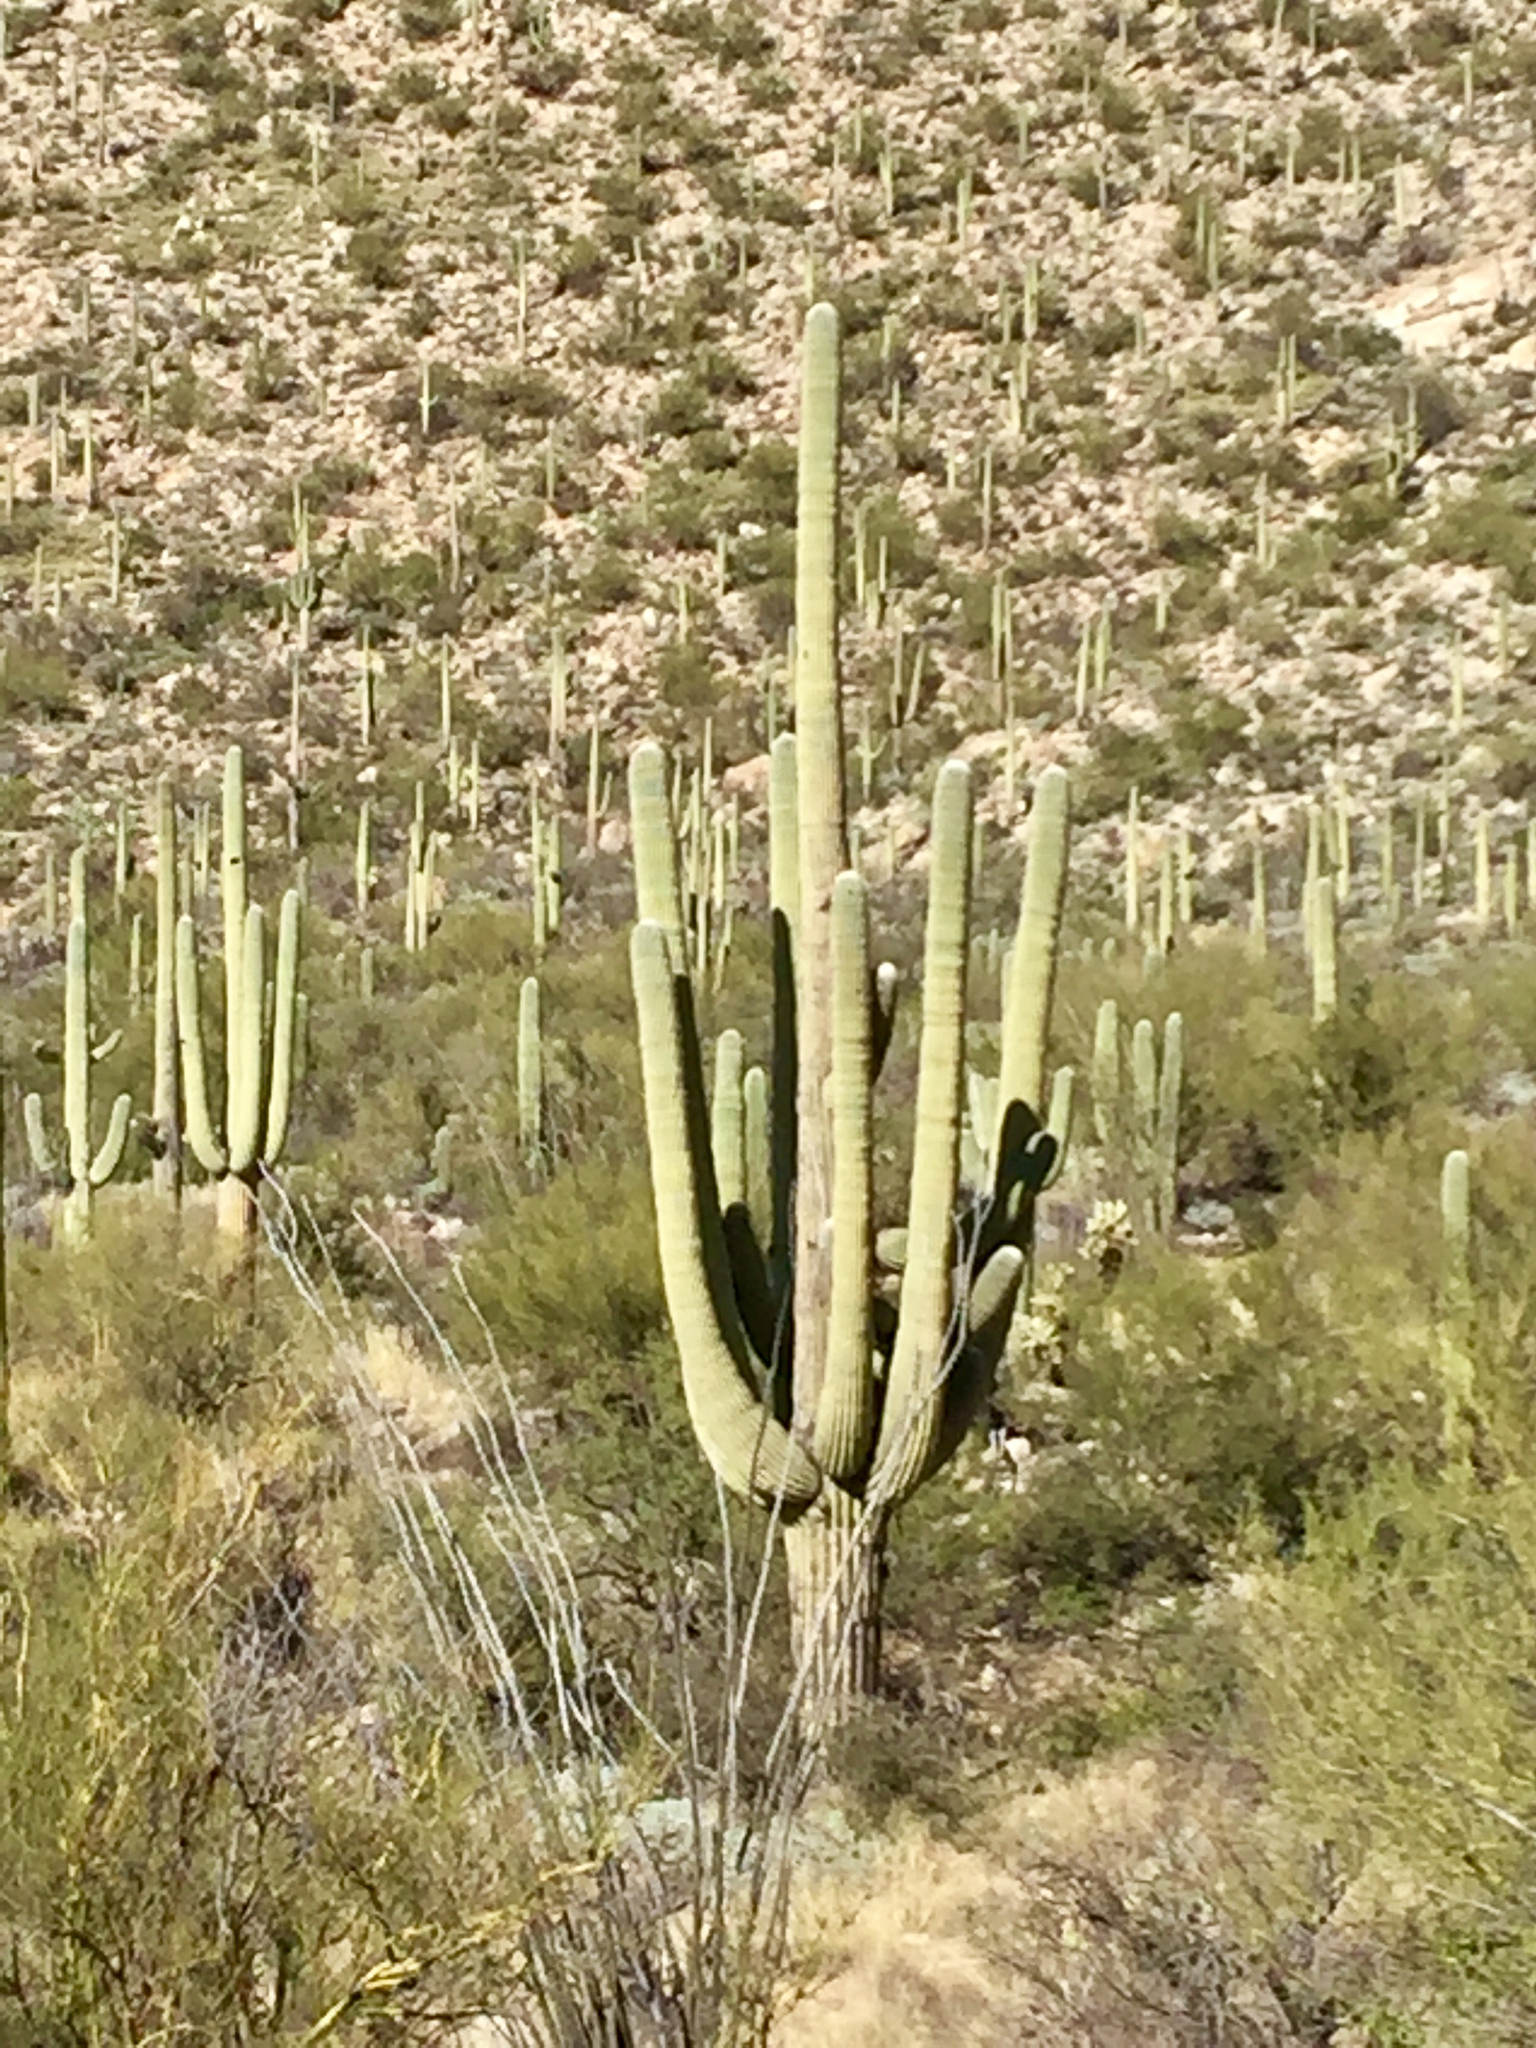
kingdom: Plantae
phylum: Tracheophyta
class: Magnoliopsida
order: Caryophyllales
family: Cactaceae
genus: Carnegiea
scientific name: Carnegiea gigantea
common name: Saguaro
